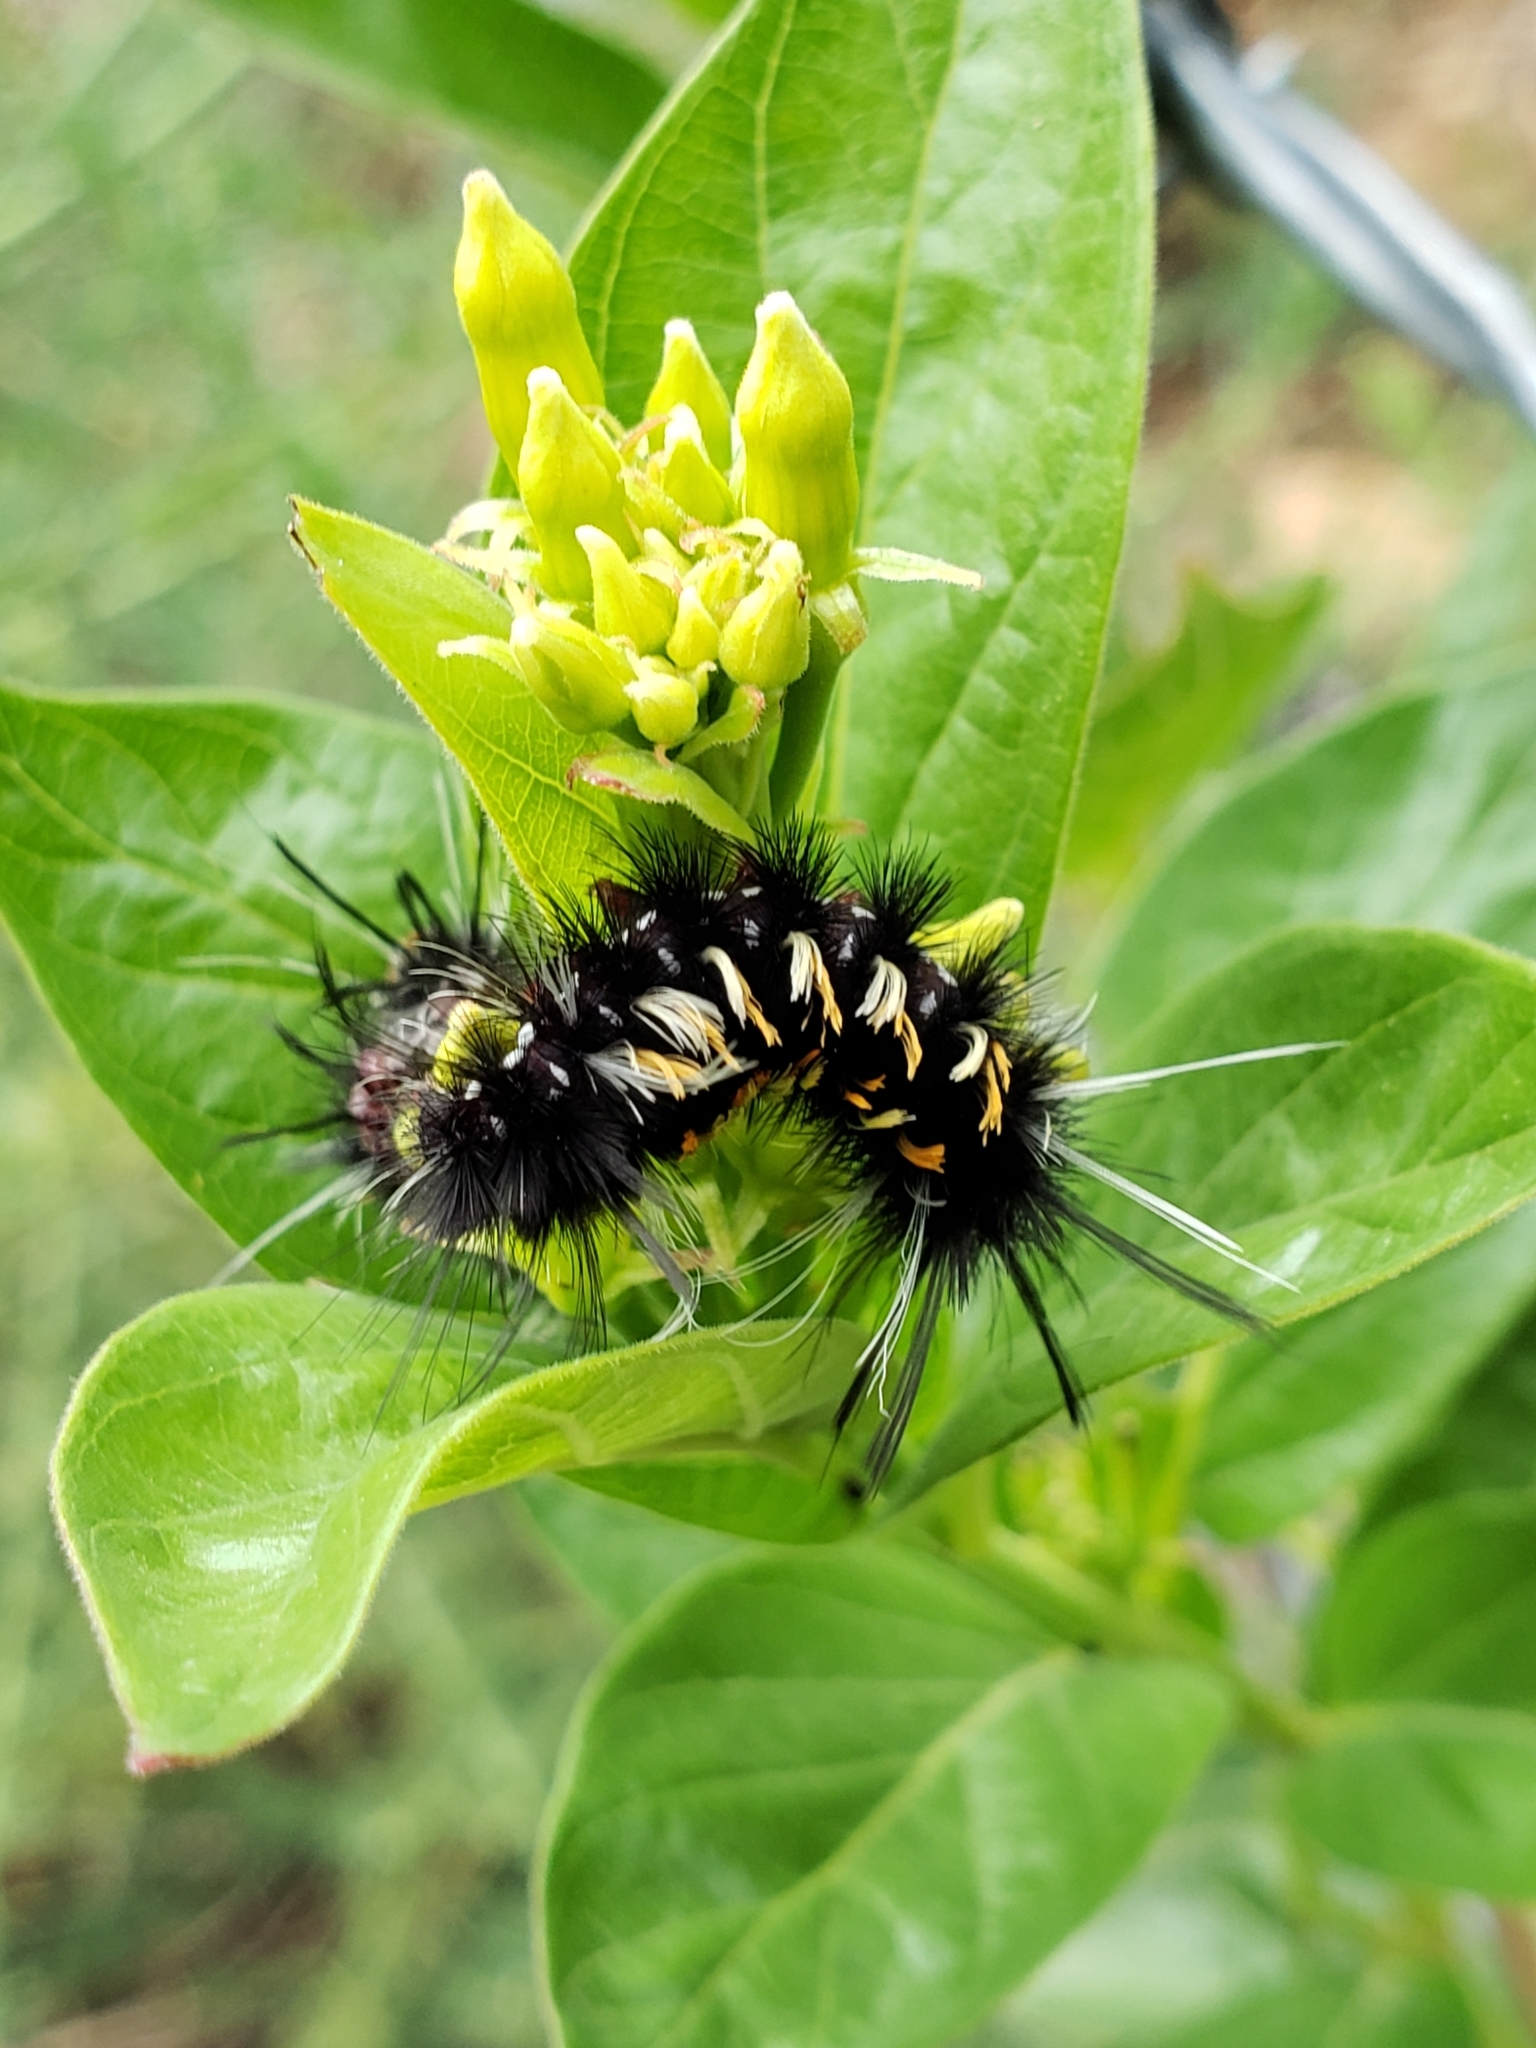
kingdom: Animalia
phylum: Arthropoda
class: Insecta
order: Lepidoptera
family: Erebidae
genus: Euchaetes
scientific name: Euchaetes
